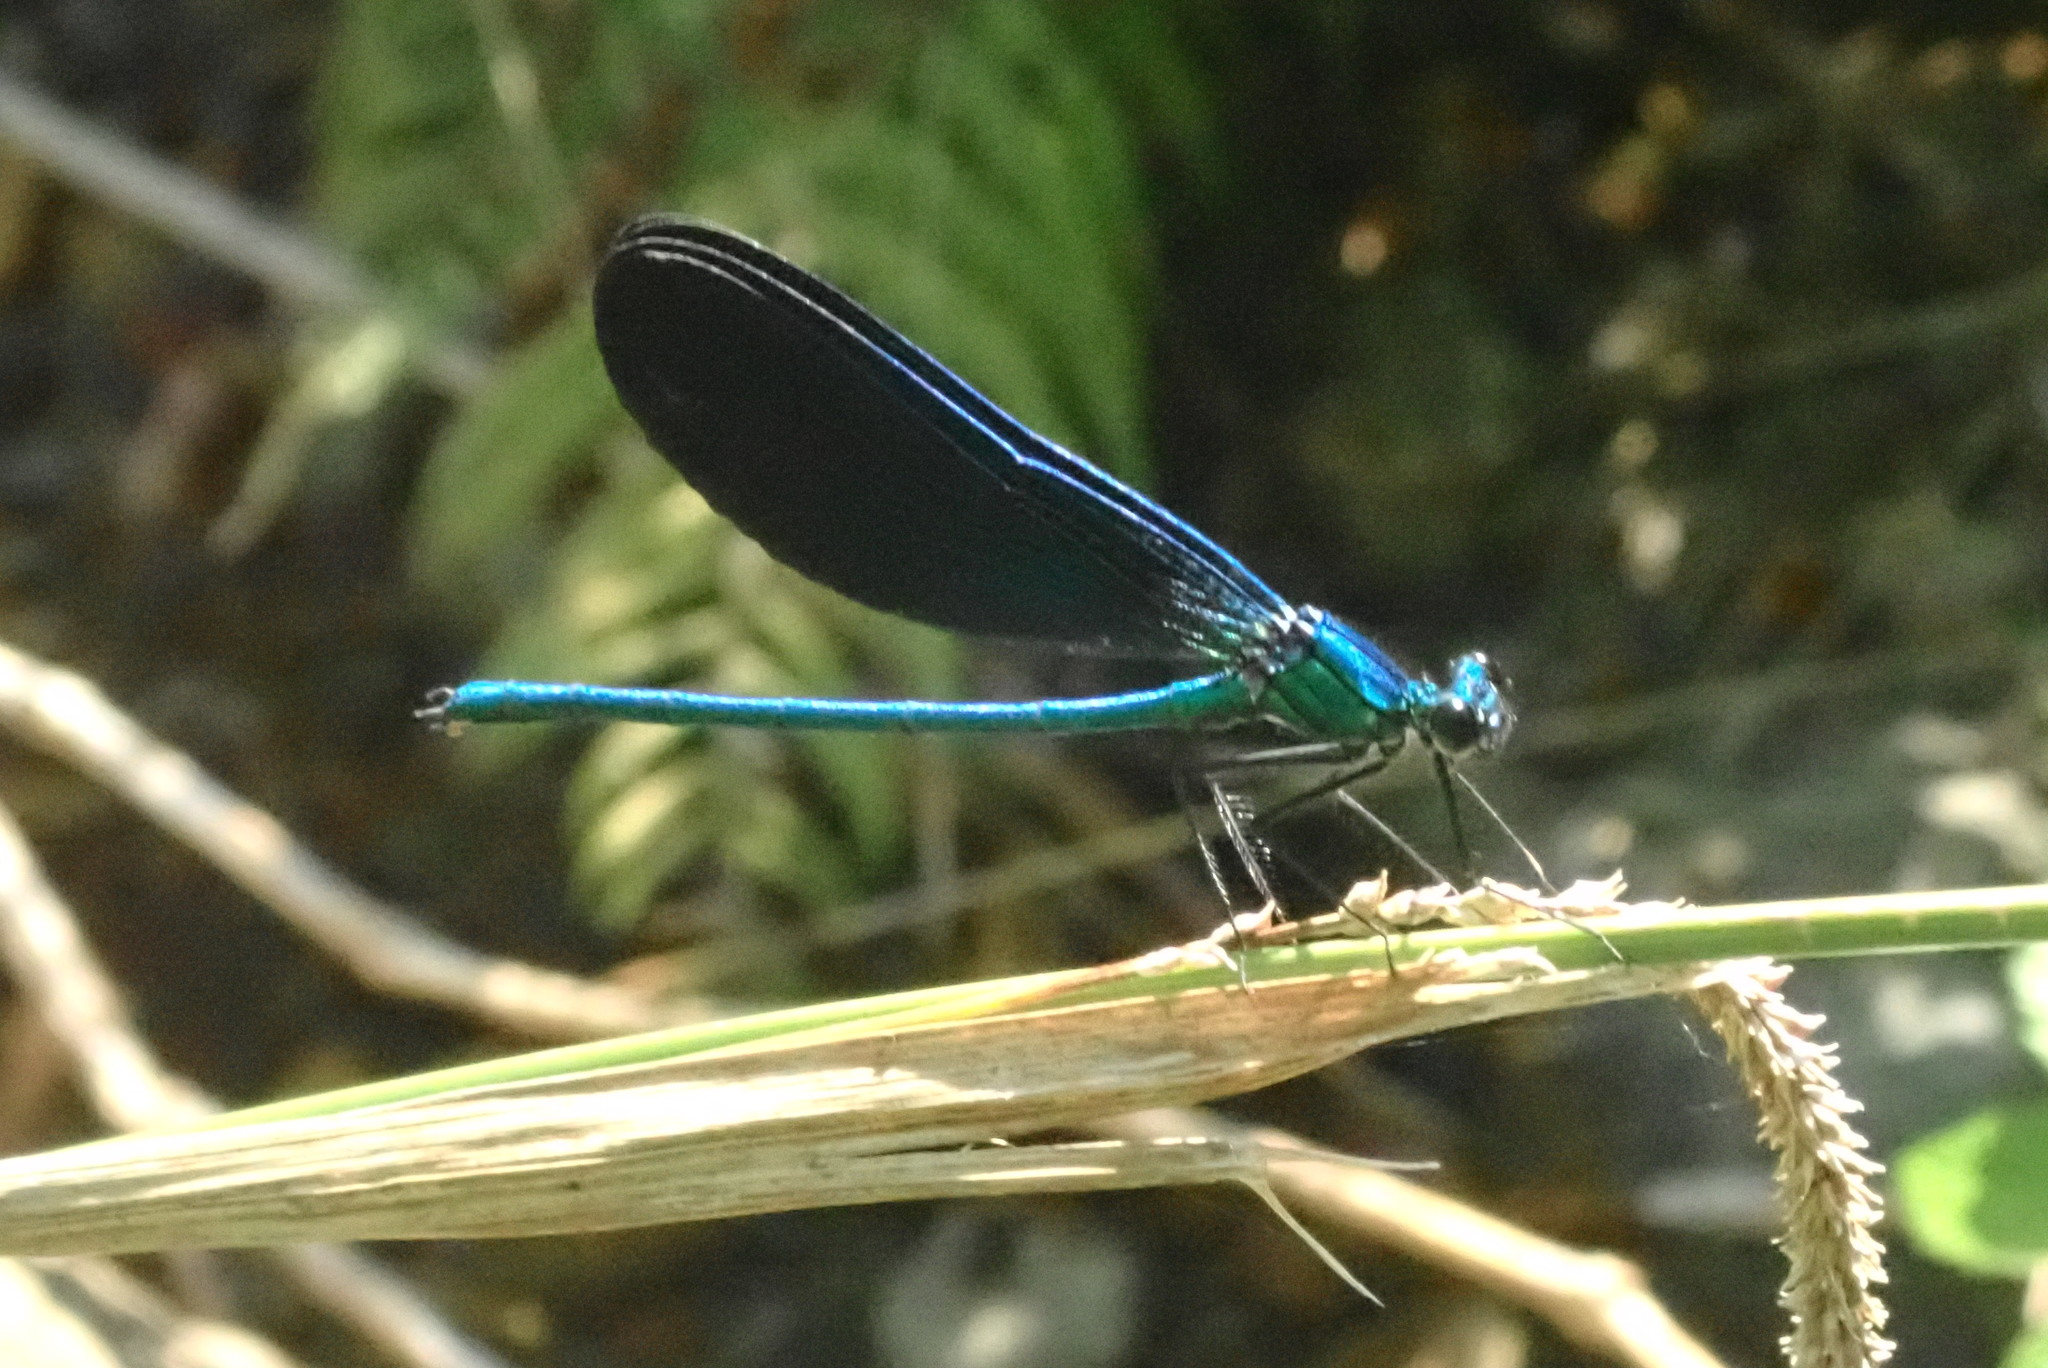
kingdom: Animalia
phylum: Arthropoda
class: Insecta
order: Odonata
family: Calopterygidae
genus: Calopteryx
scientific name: Calopteryx virgo
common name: Beautiful demoiselle
